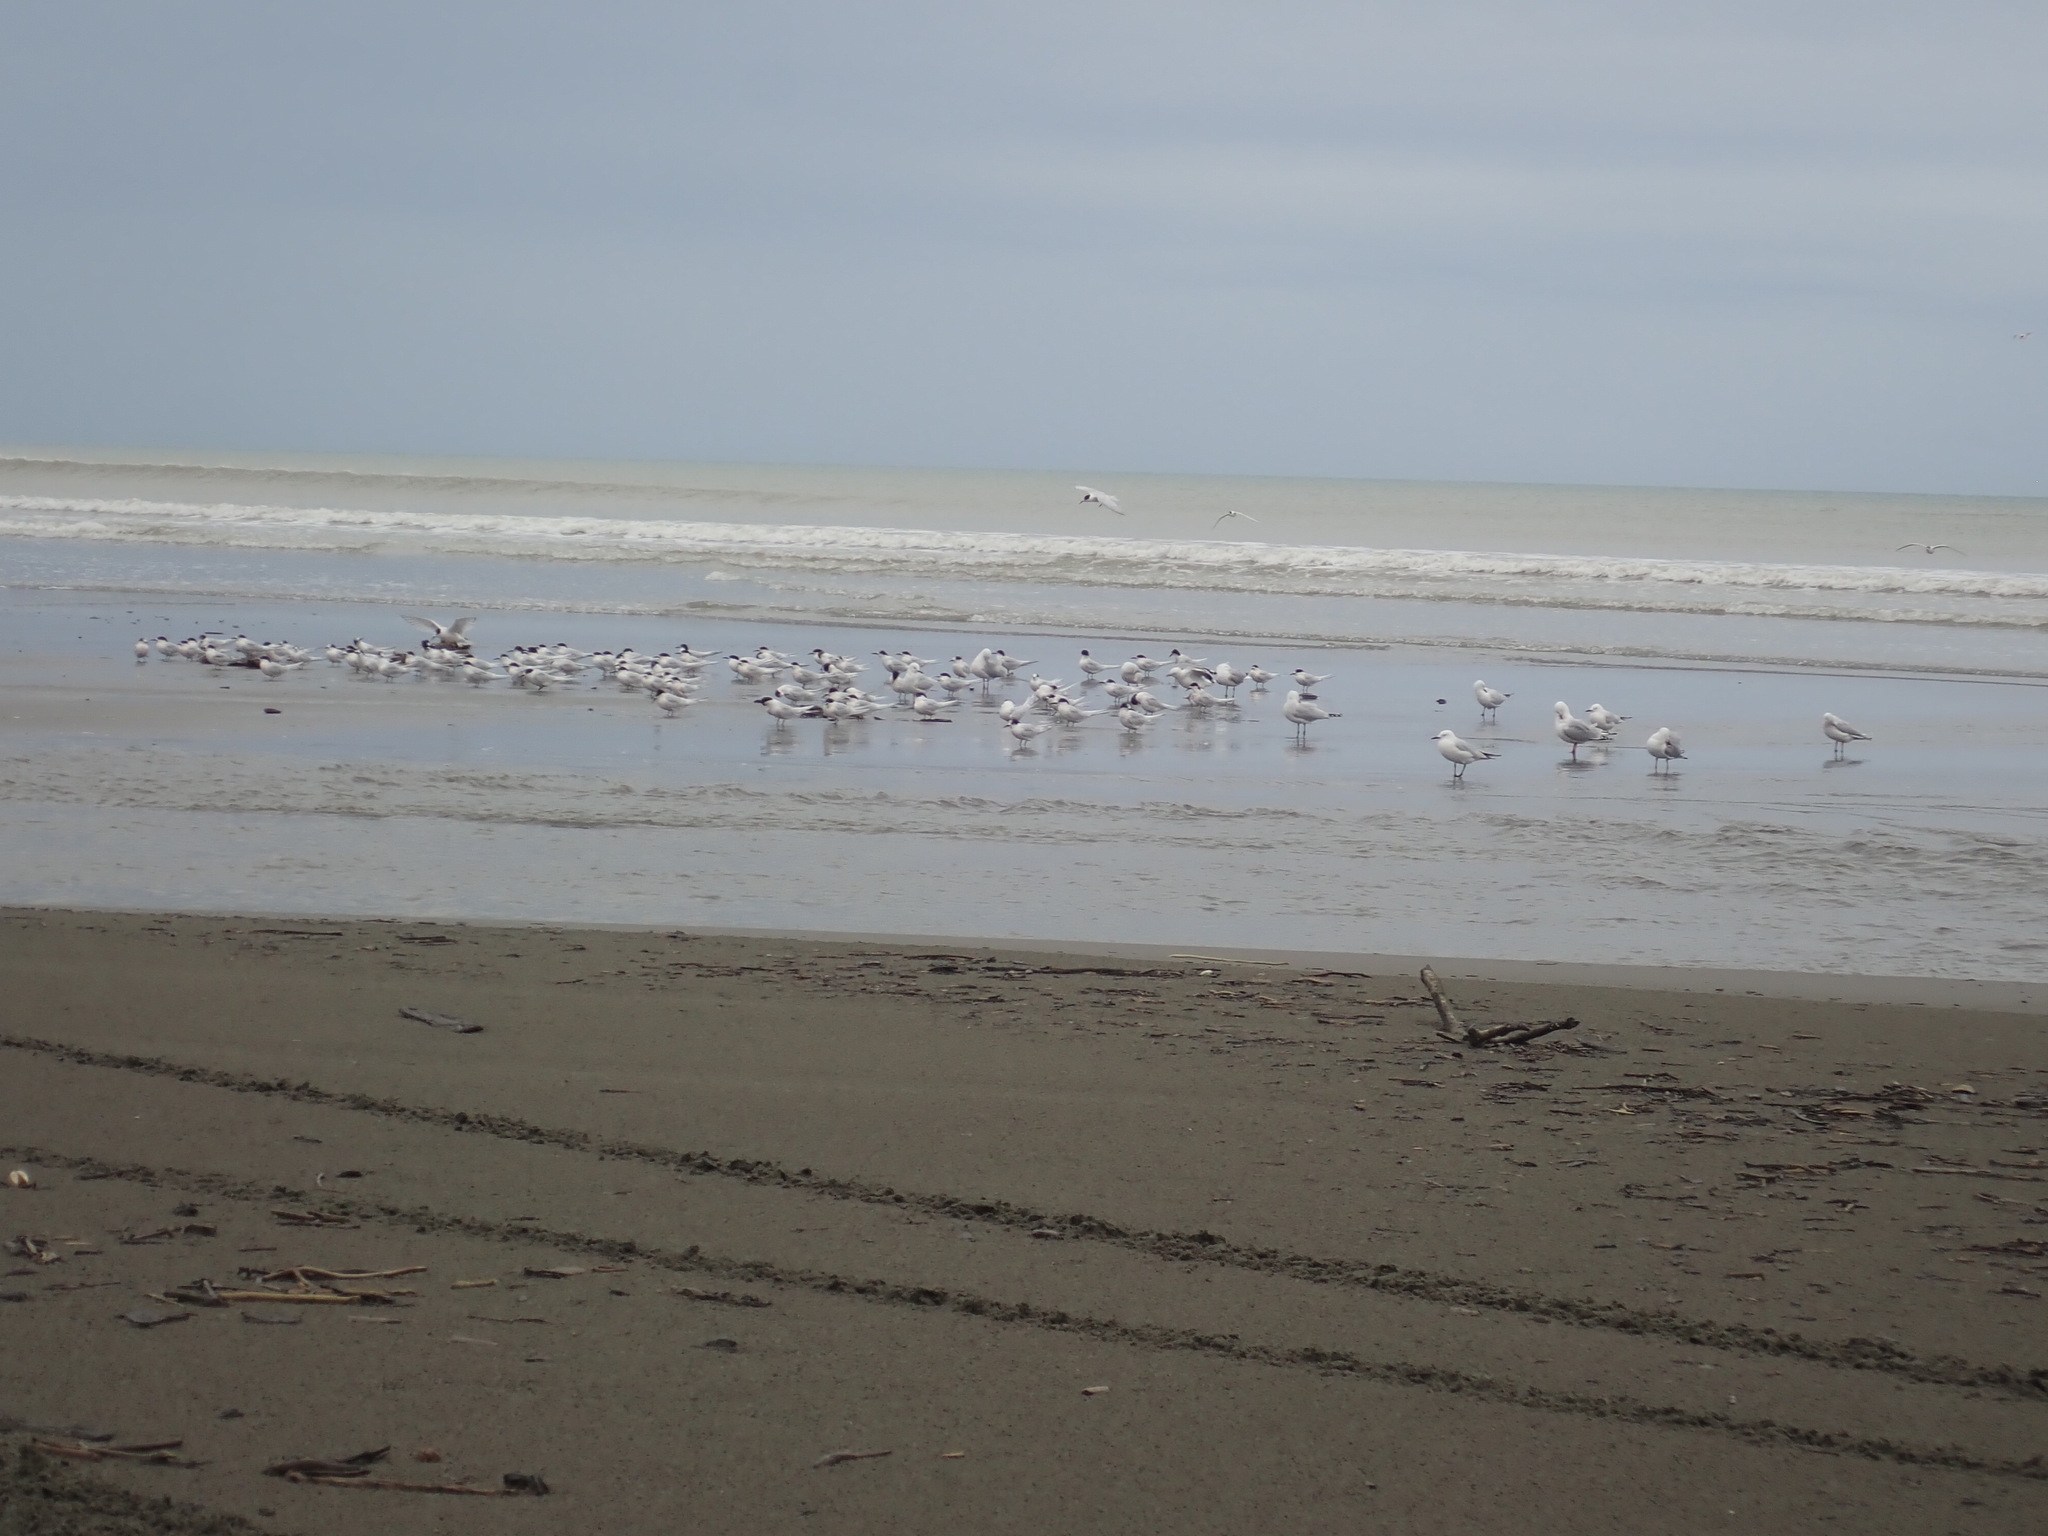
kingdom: Animalia
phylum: Chordata
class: Aves
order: Charadriiformes
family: Laridae
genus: Sterna
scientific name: Sterna striata
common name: White-fronted tern
